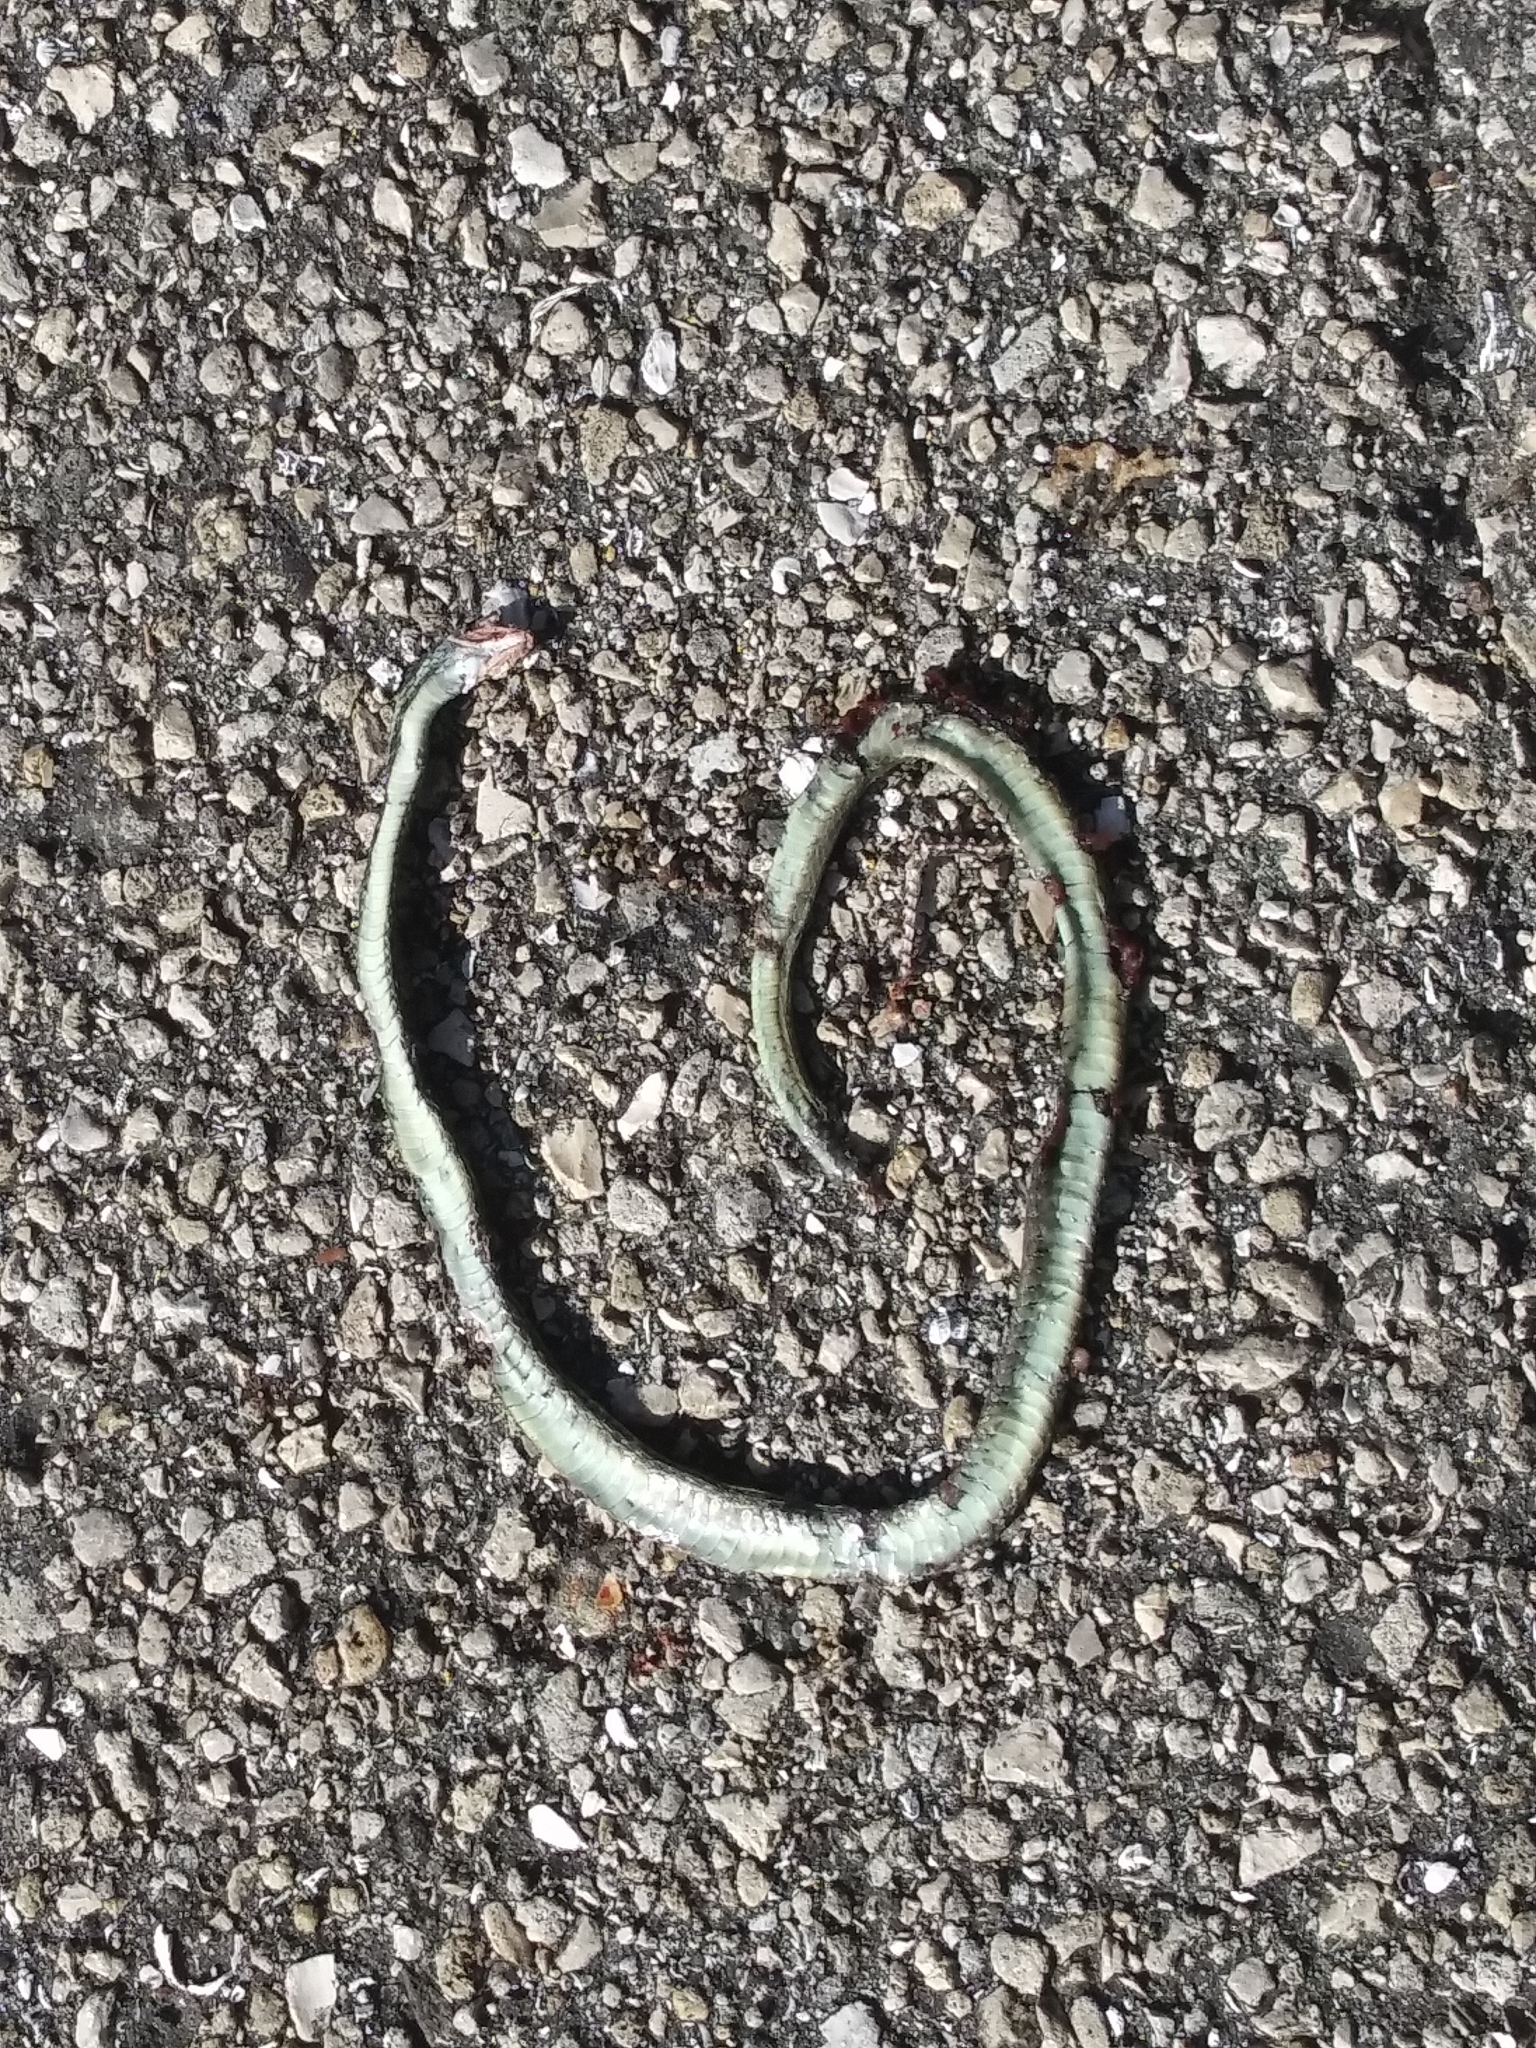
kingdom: Animalia
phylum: Chordata
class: Squamata
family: Colubridae
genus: Thamnophis
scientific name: Thamnophis saurita
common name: Eastern ribbonsnake
